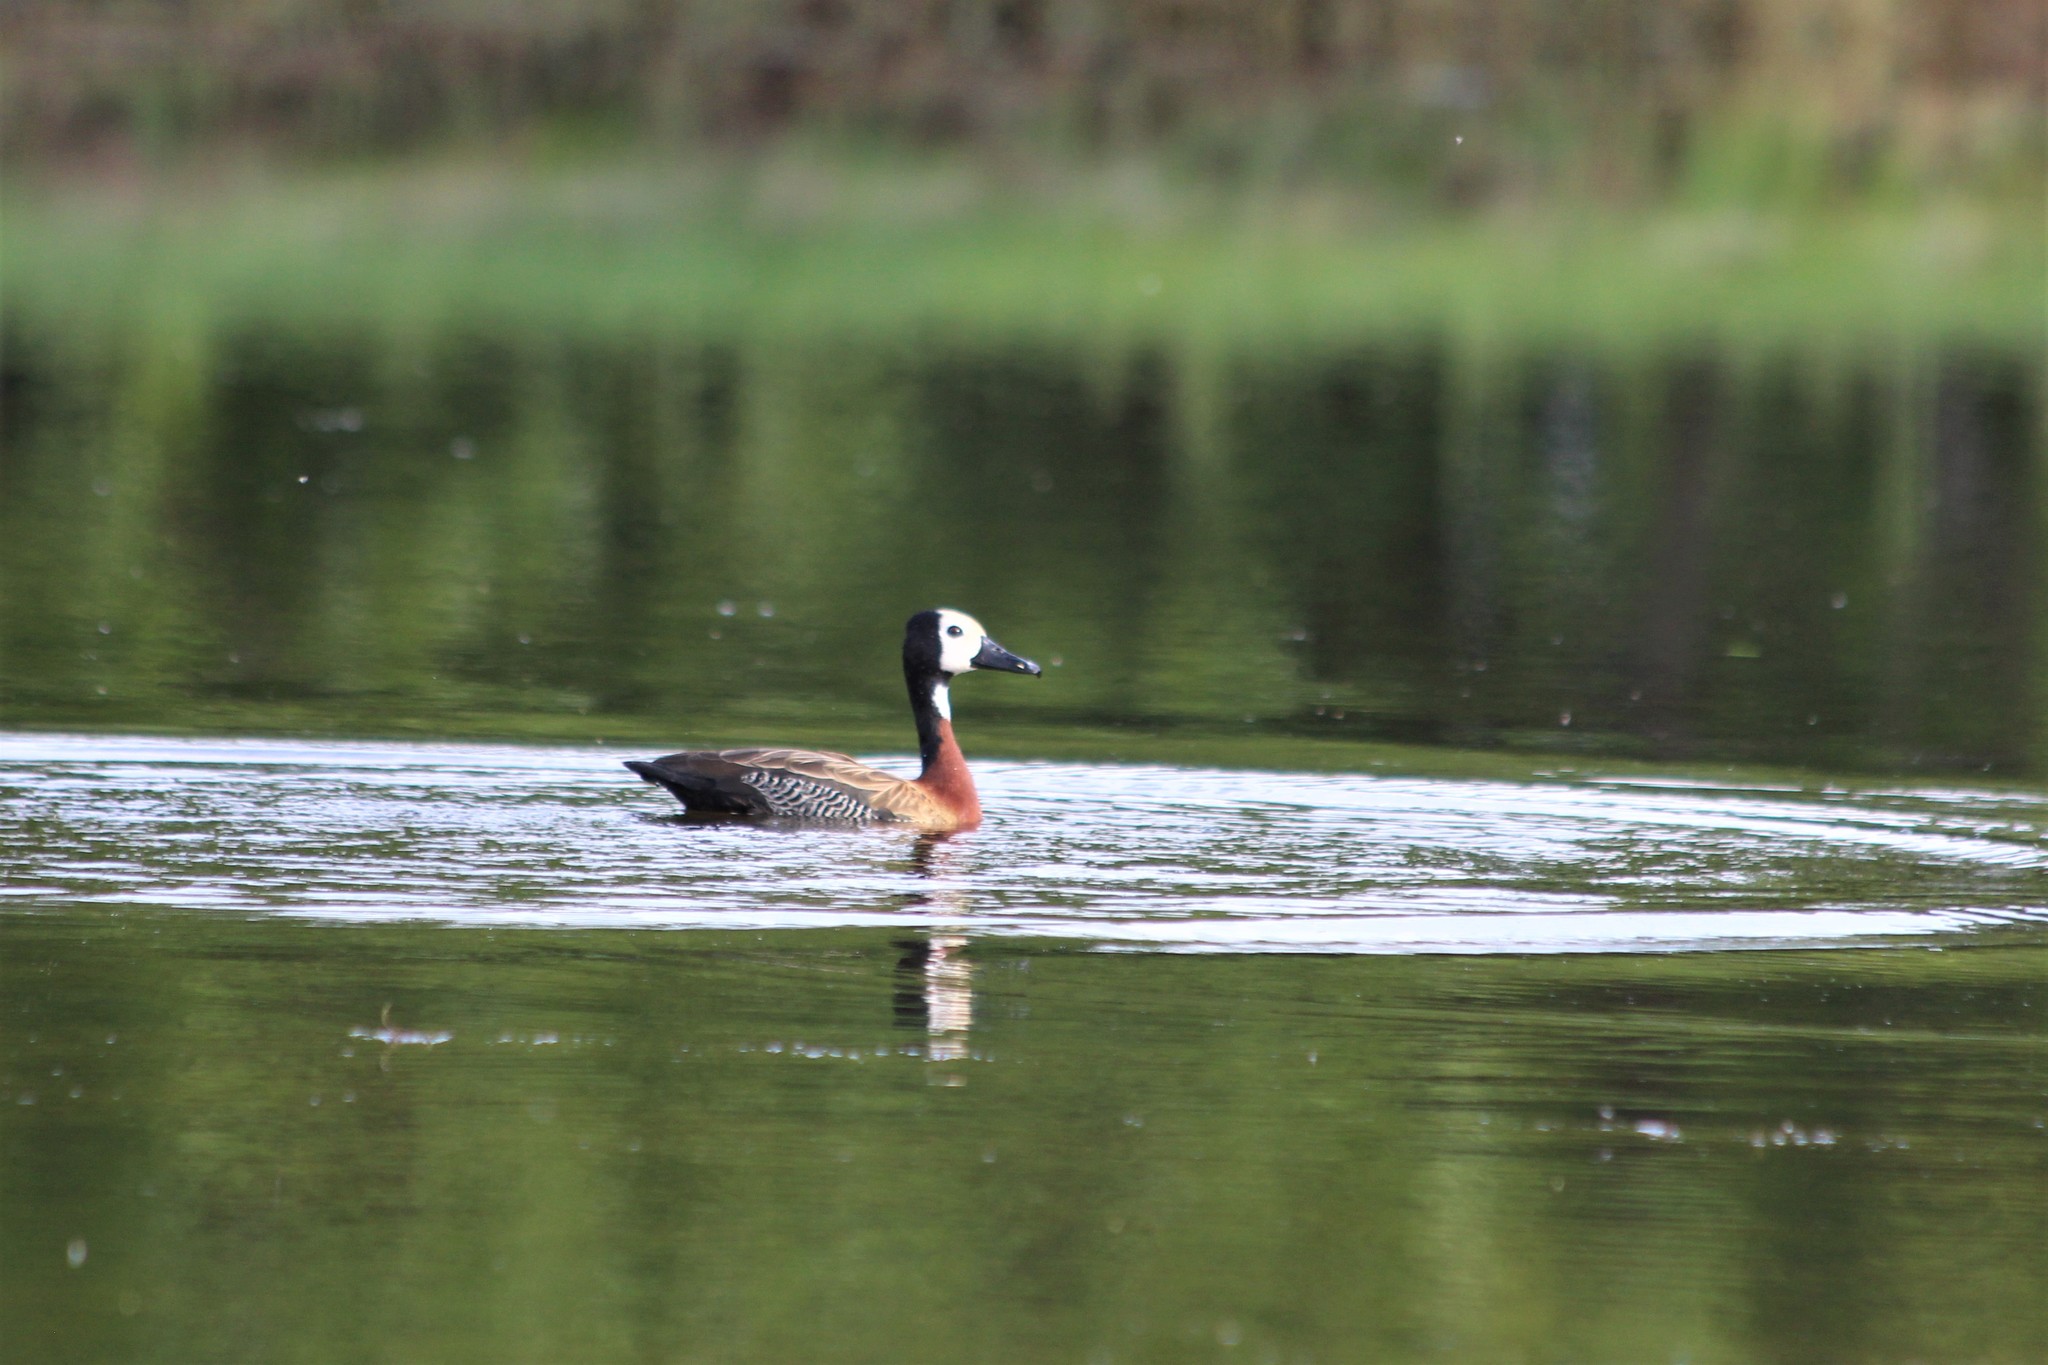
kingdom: Animalia
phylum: Chordata
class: Aves
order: Anseriformes
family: Anatidae
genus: Dendrocygna
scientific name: Dendrocygna viduata
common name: White-faced whistling duck
